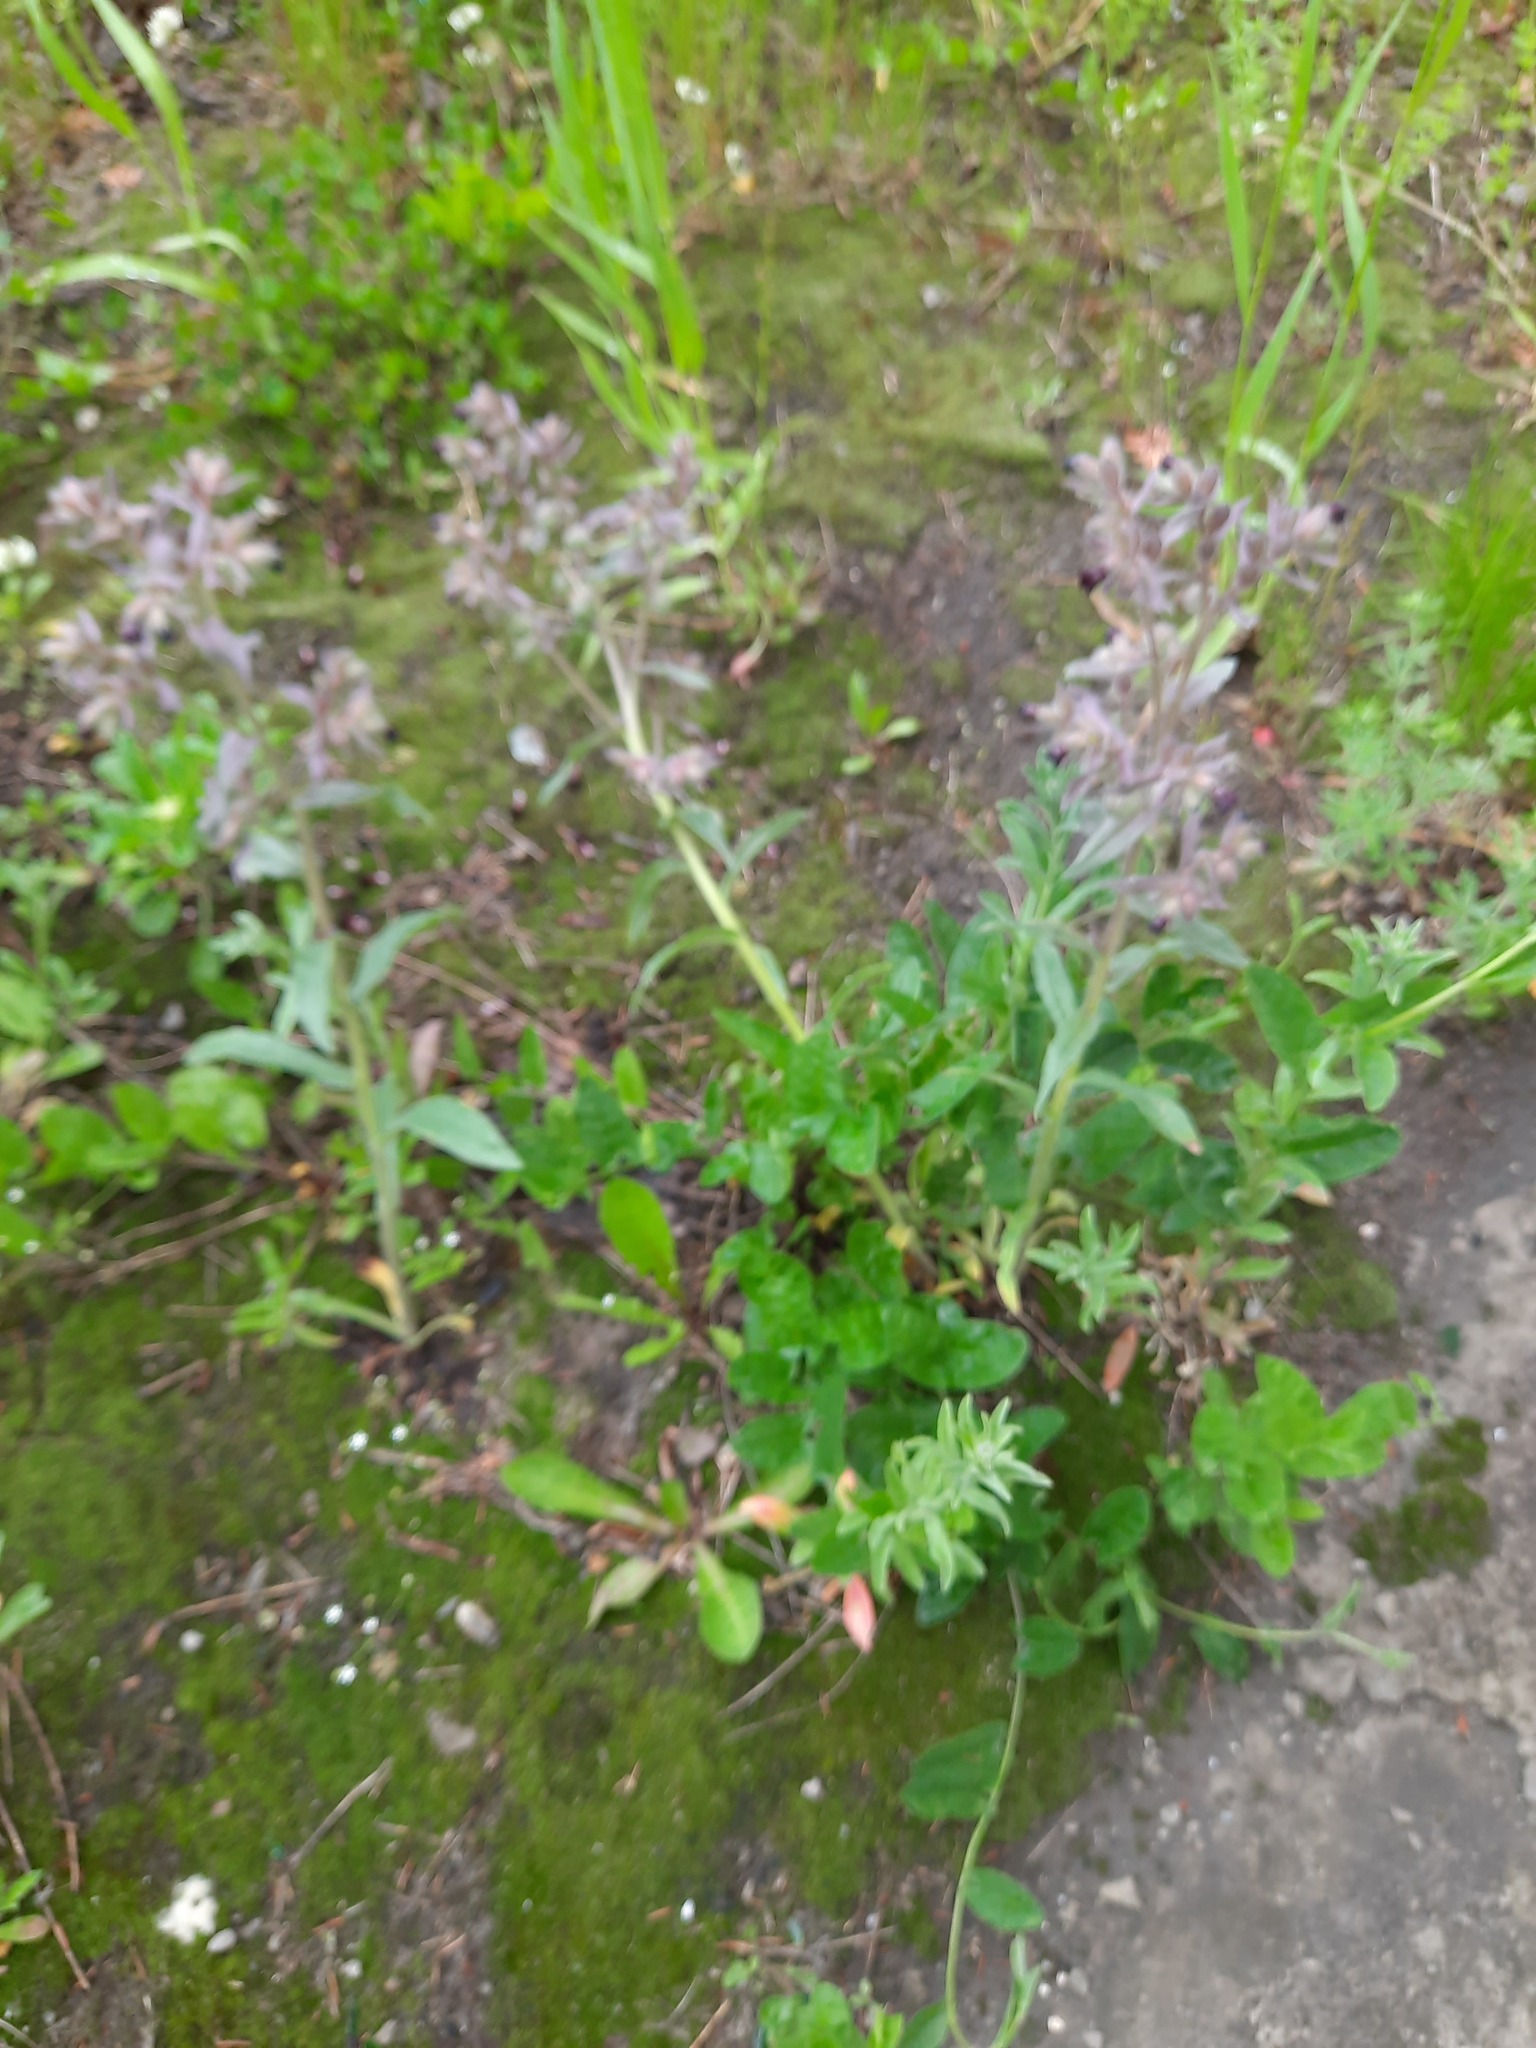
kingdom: Plantae
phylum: Tracheophyta
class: Magnoliopsida
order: Boraginales
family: Boraginaceae
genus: Nonea
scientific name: Nonea pulla
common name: Brown nonea
